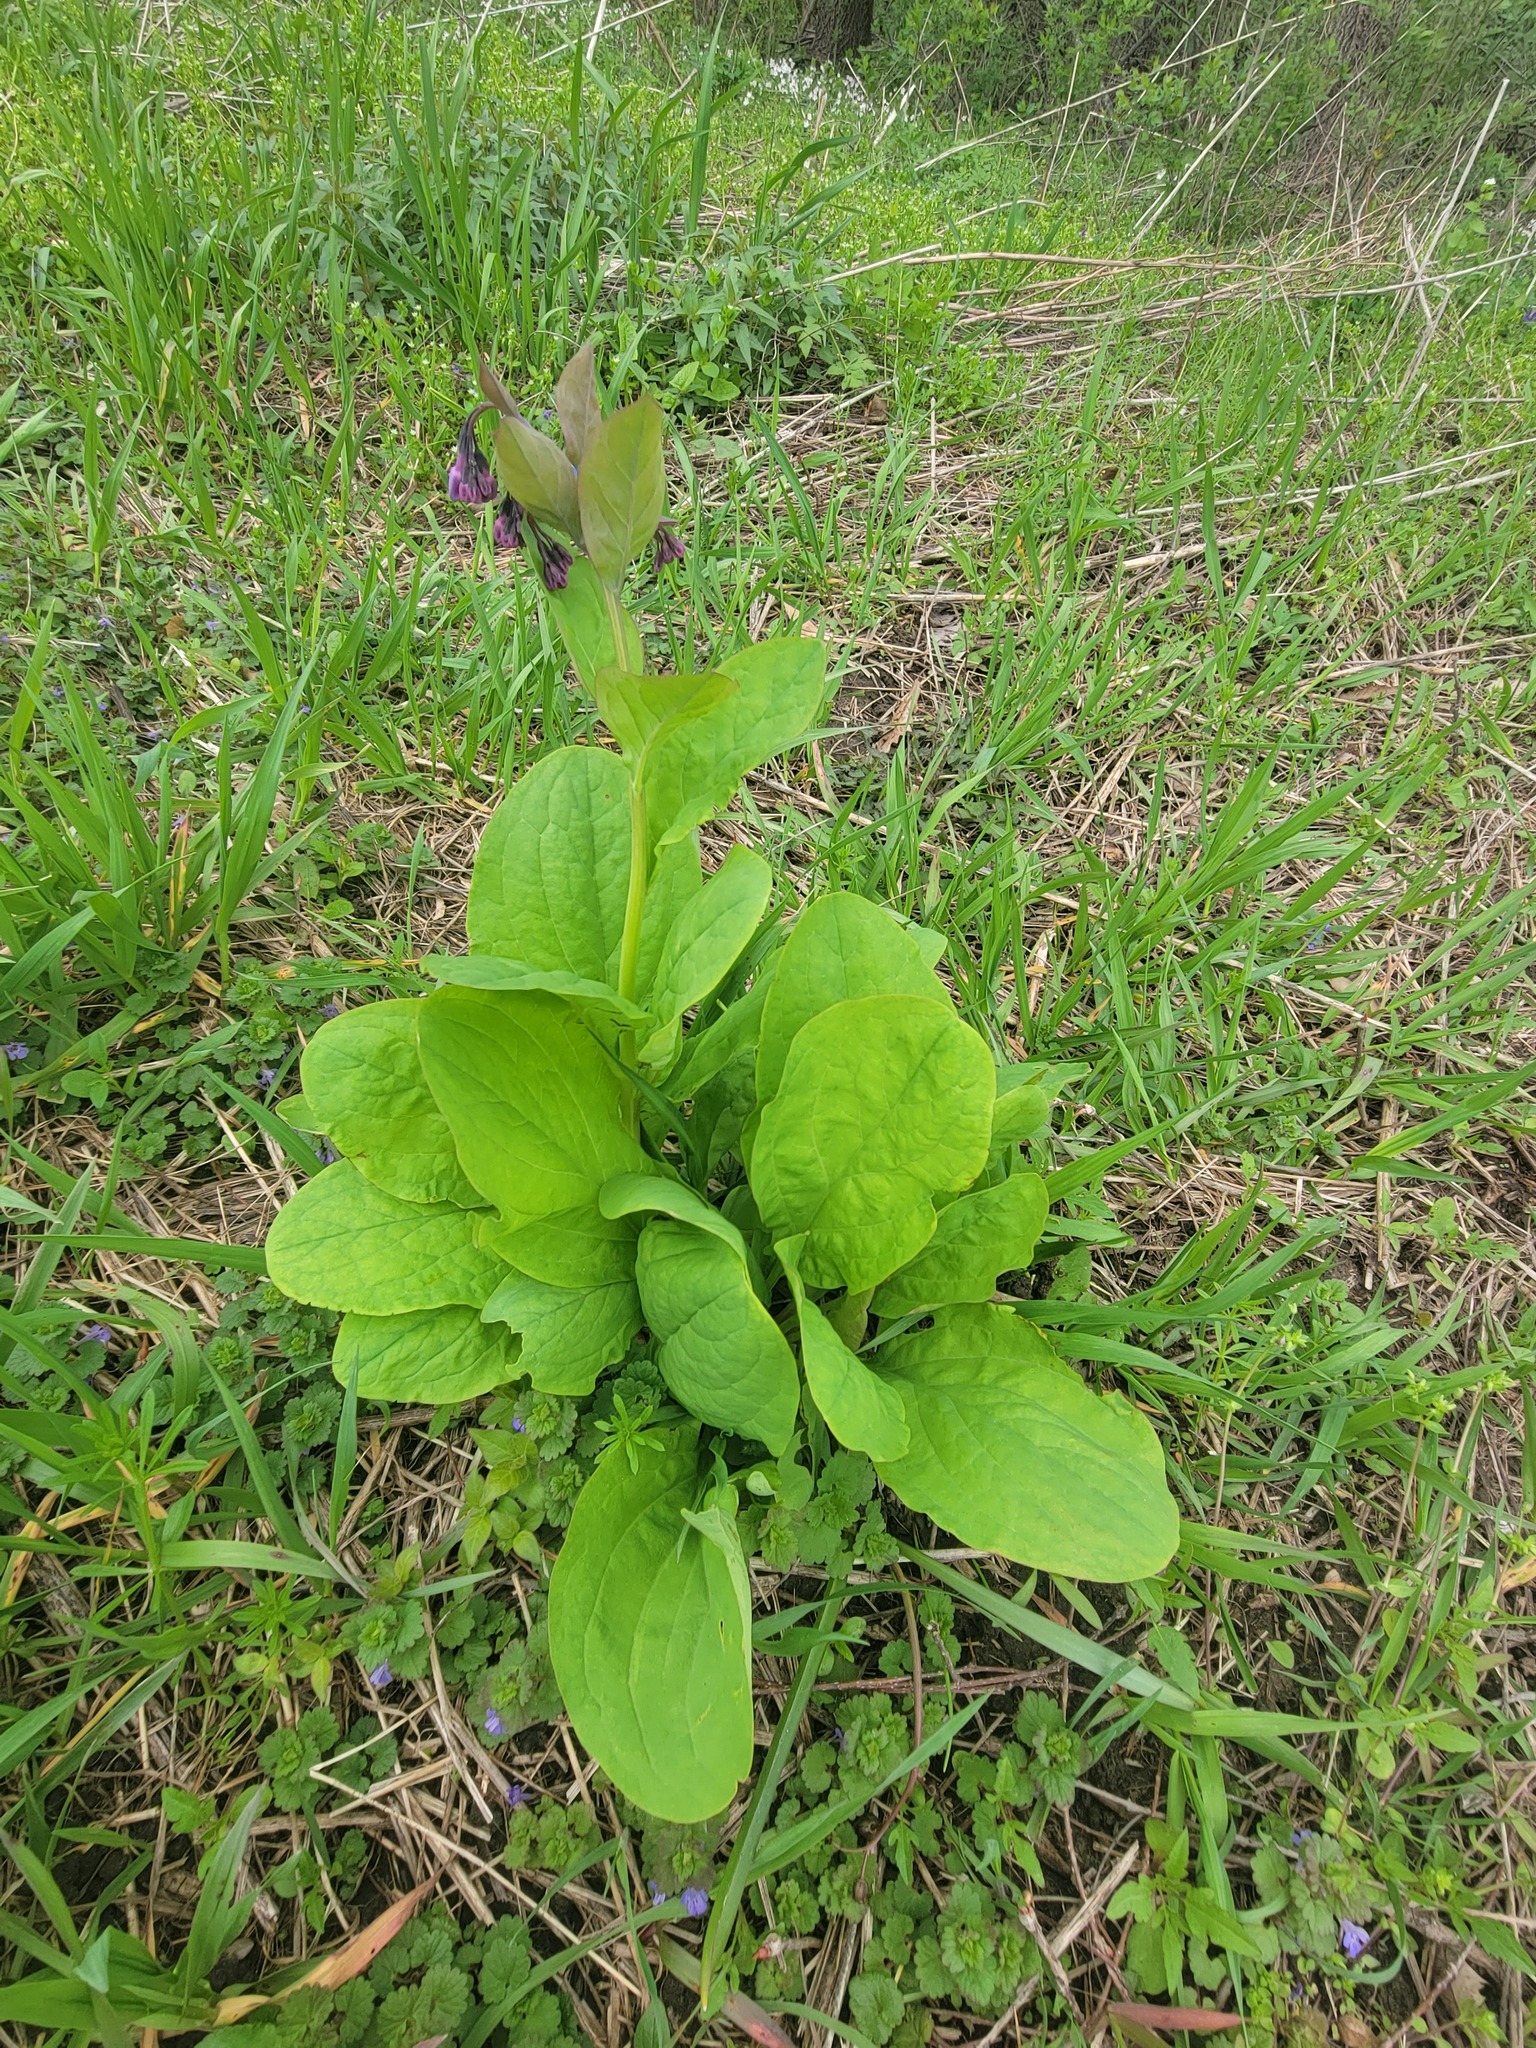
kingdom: Plantae
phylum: Tracheophyta
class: Magnoliopsida
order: Boraginales
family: Boraginaceae
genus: Mertensia
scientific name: Mertensia virginica
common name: Virginia bluebells
